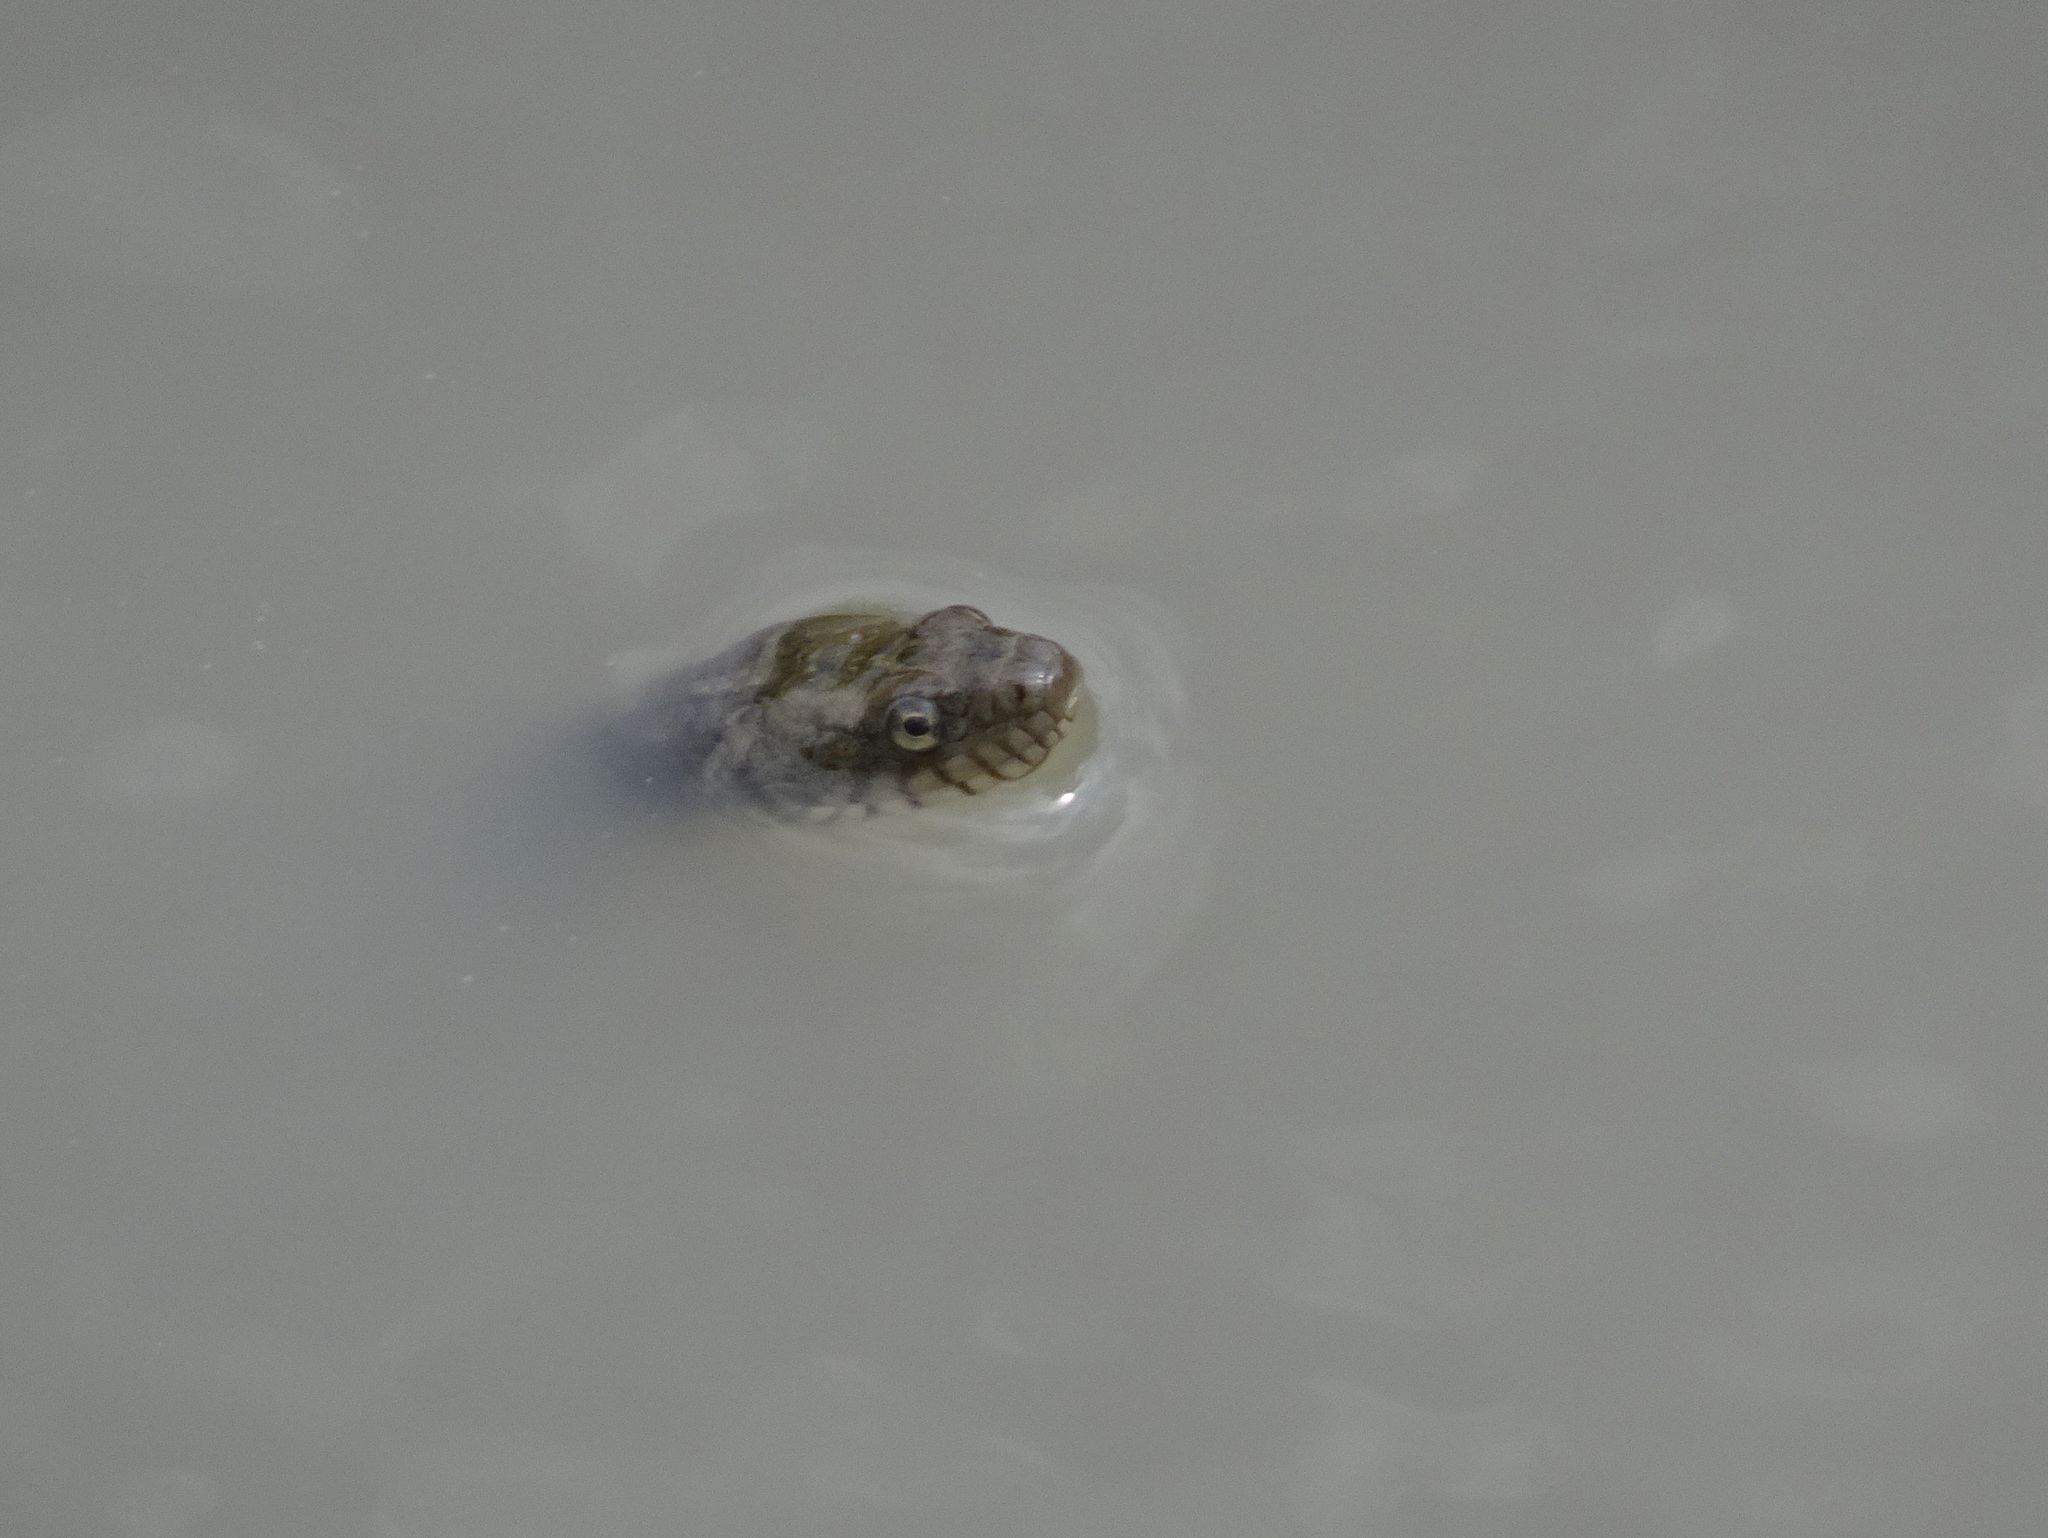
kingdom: Animalia
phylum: Chordata
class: Squamata
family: Colubridae
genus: Nerodia
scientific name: Nerodia sipedon
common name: Northern water snake
